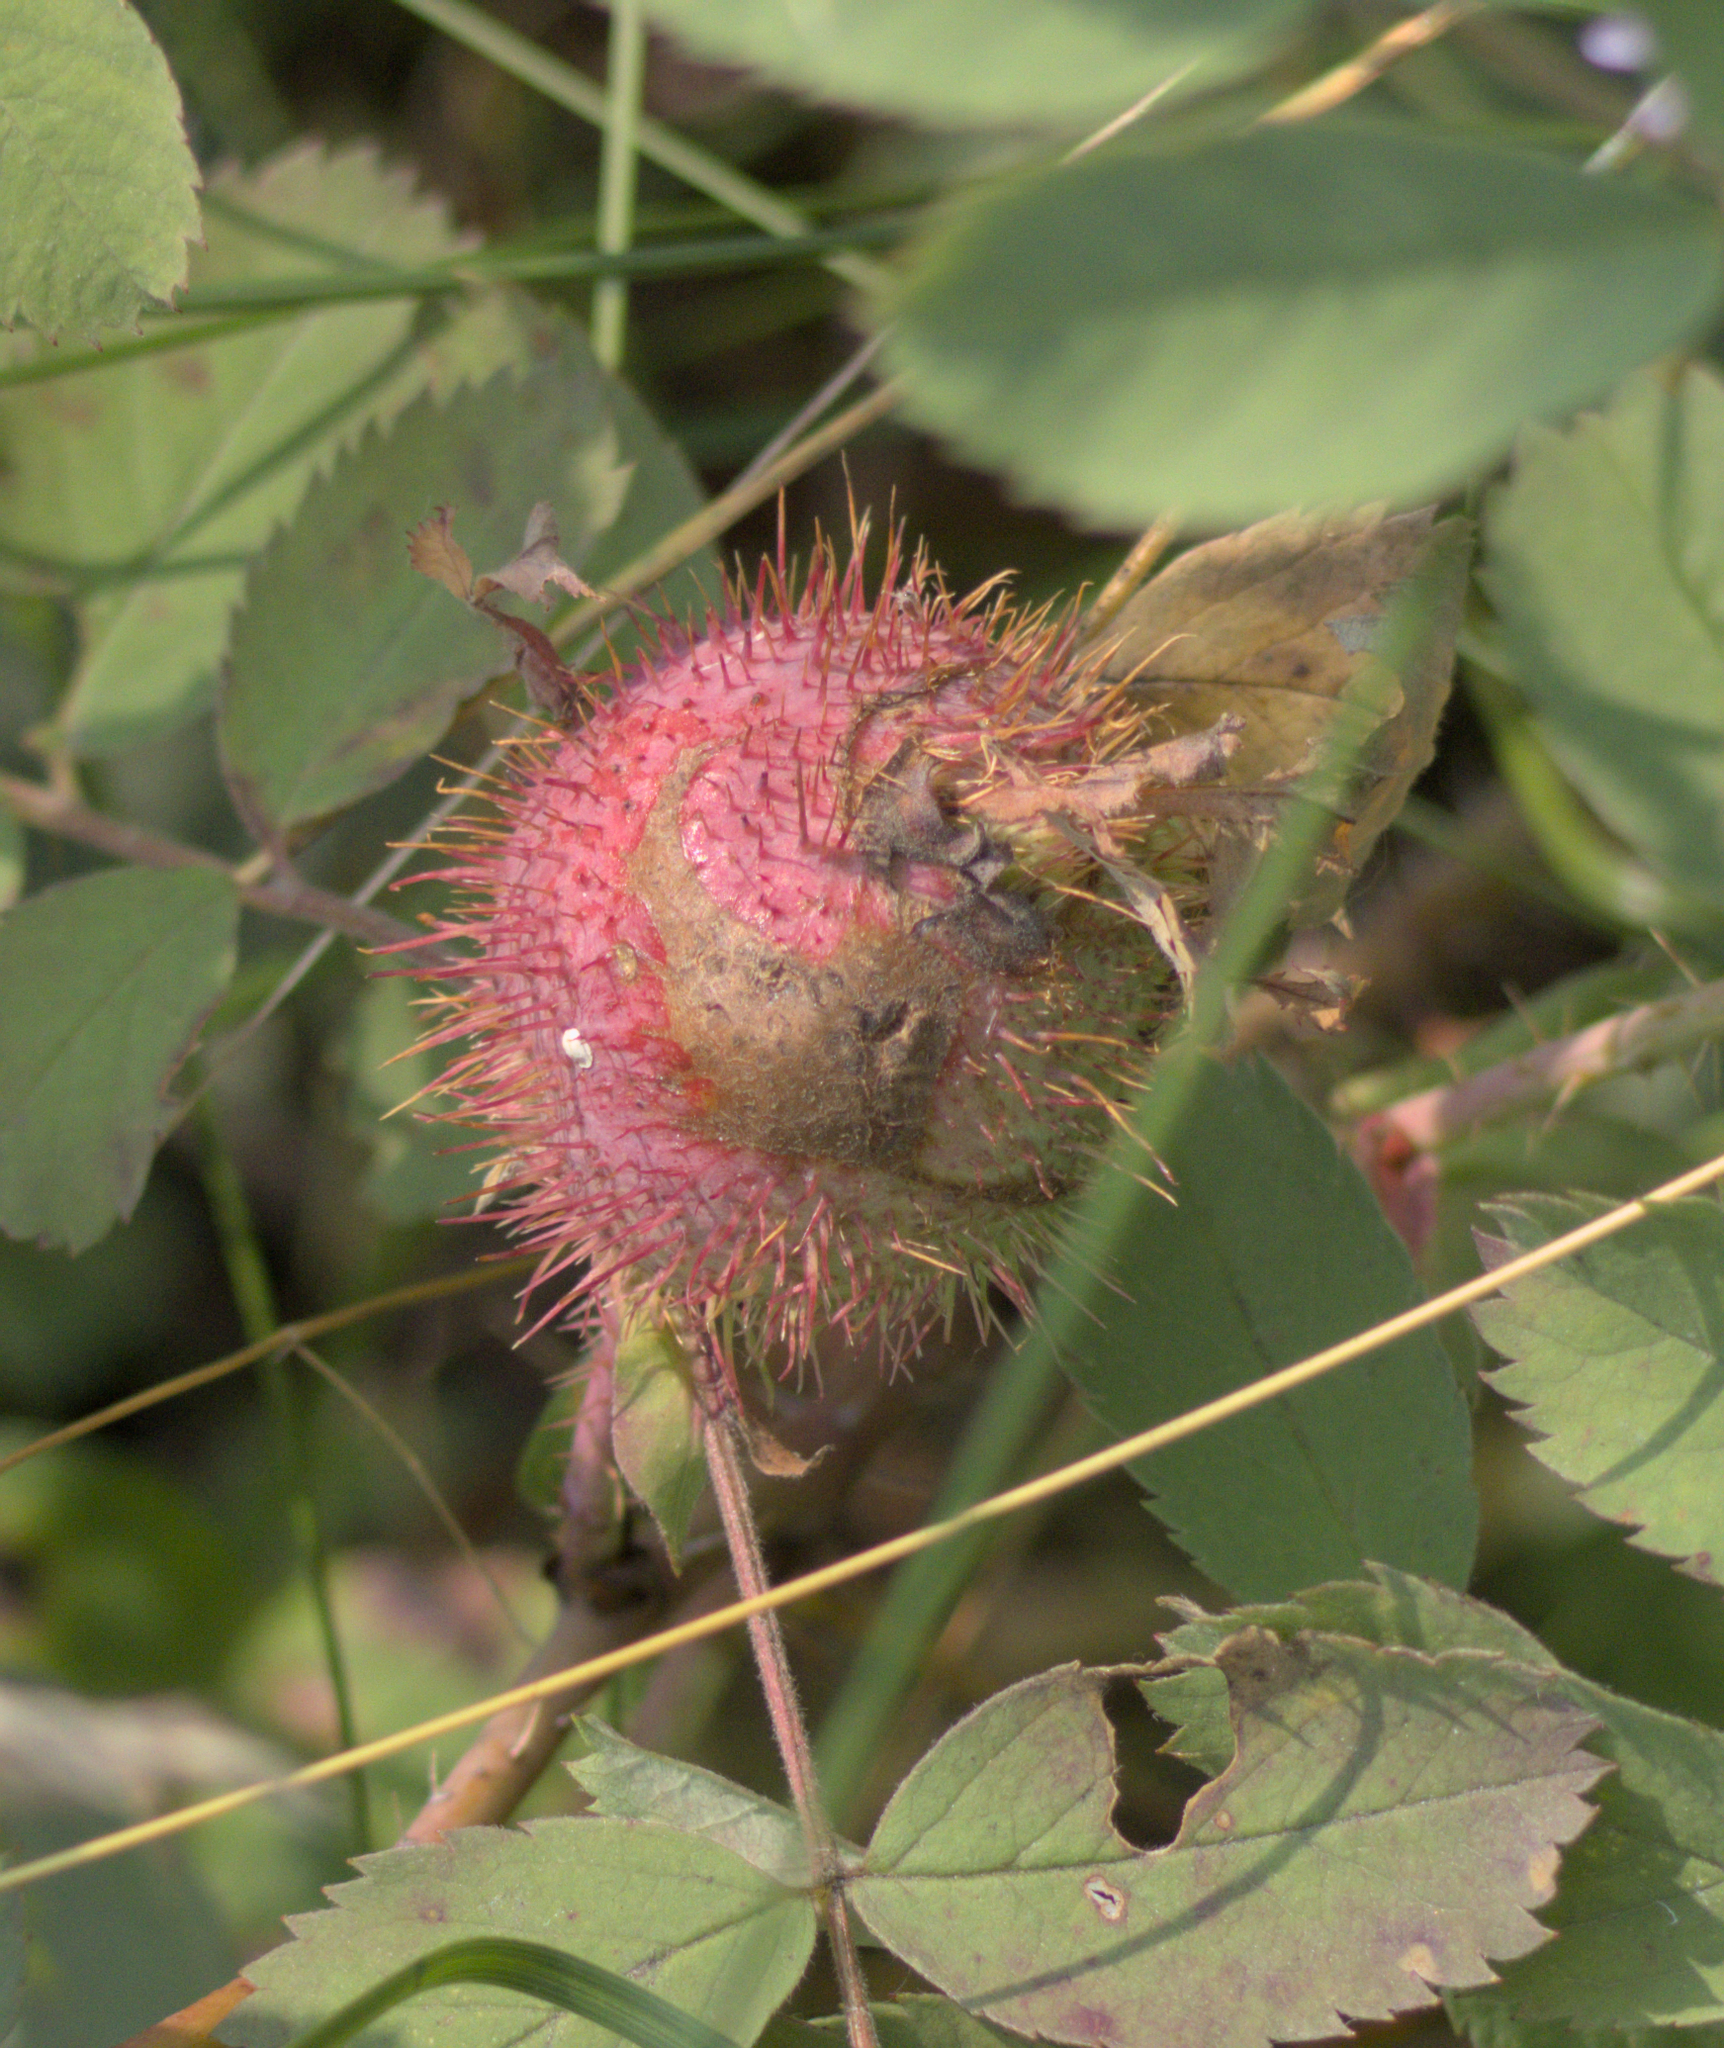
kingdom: Animalia
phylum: Arthropoda
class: Insecta
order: Hymenoptera
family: Cynipidae
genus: Diplolepis
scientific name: Diplolepis spinosa
